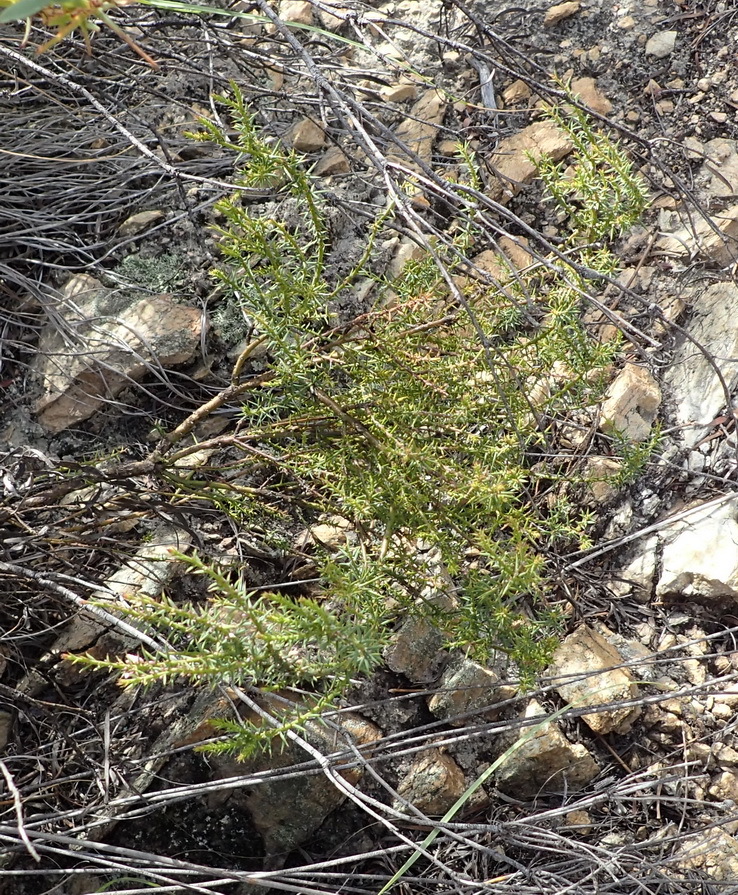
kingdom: Plantae
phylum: Tracheophyta
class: Magnoliopsida
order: Fabales
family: Polygalaceae
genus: Muraltia
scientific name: Muraltia juniperifolia
